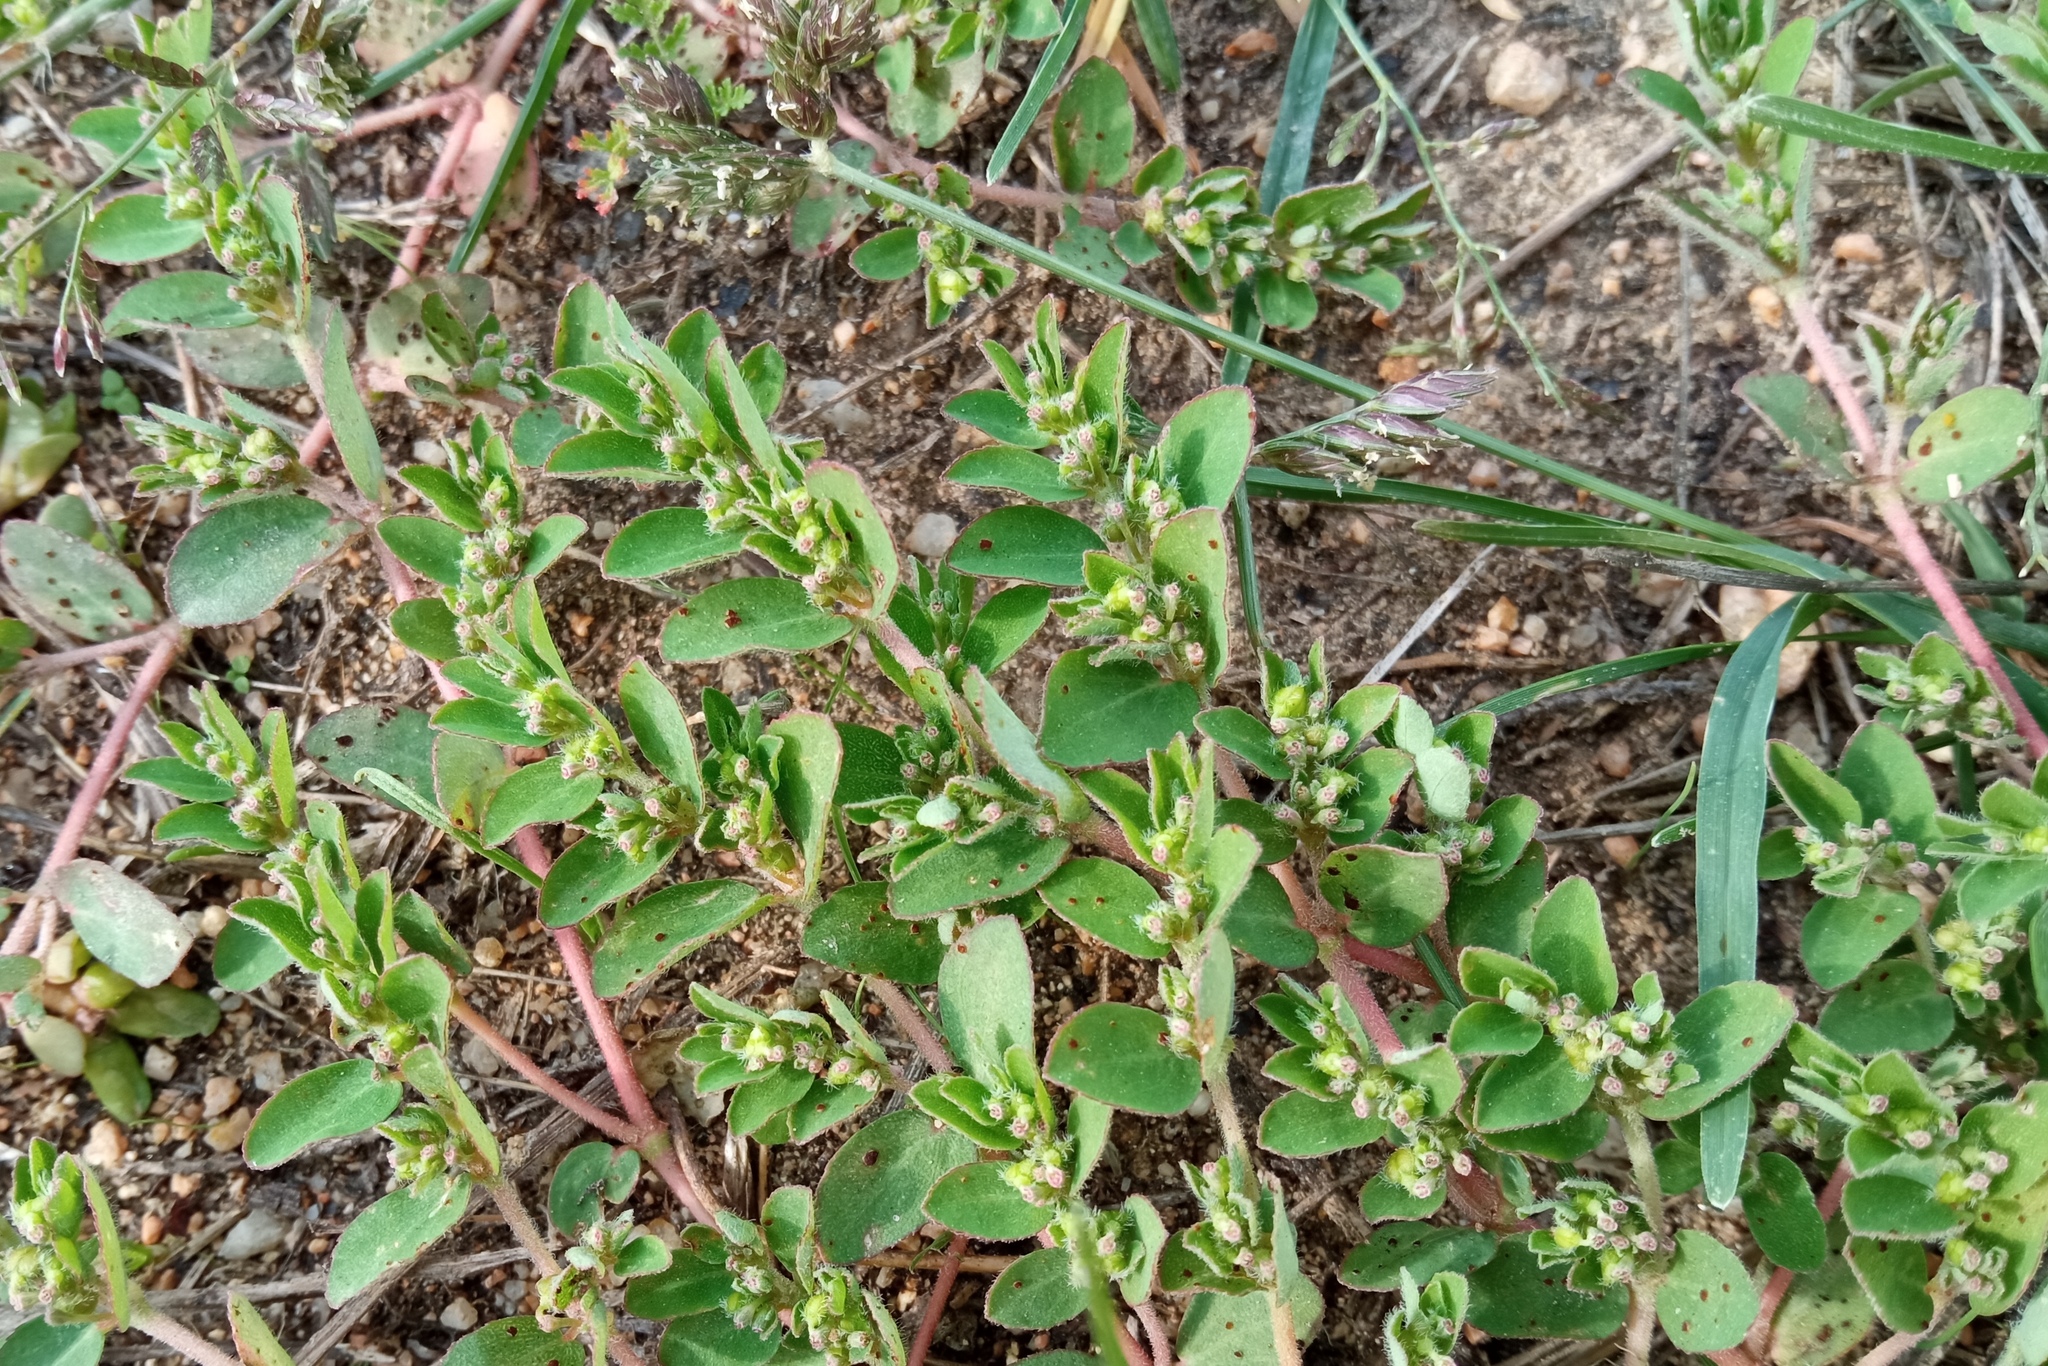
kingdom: Plantae
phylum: Tracheophyta
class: Magnoliopsida
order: Malpighiales
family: Euphorbiaceae
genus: Euphorbia
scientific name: Euphorbia prostrata
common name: Prostrate sandmat
